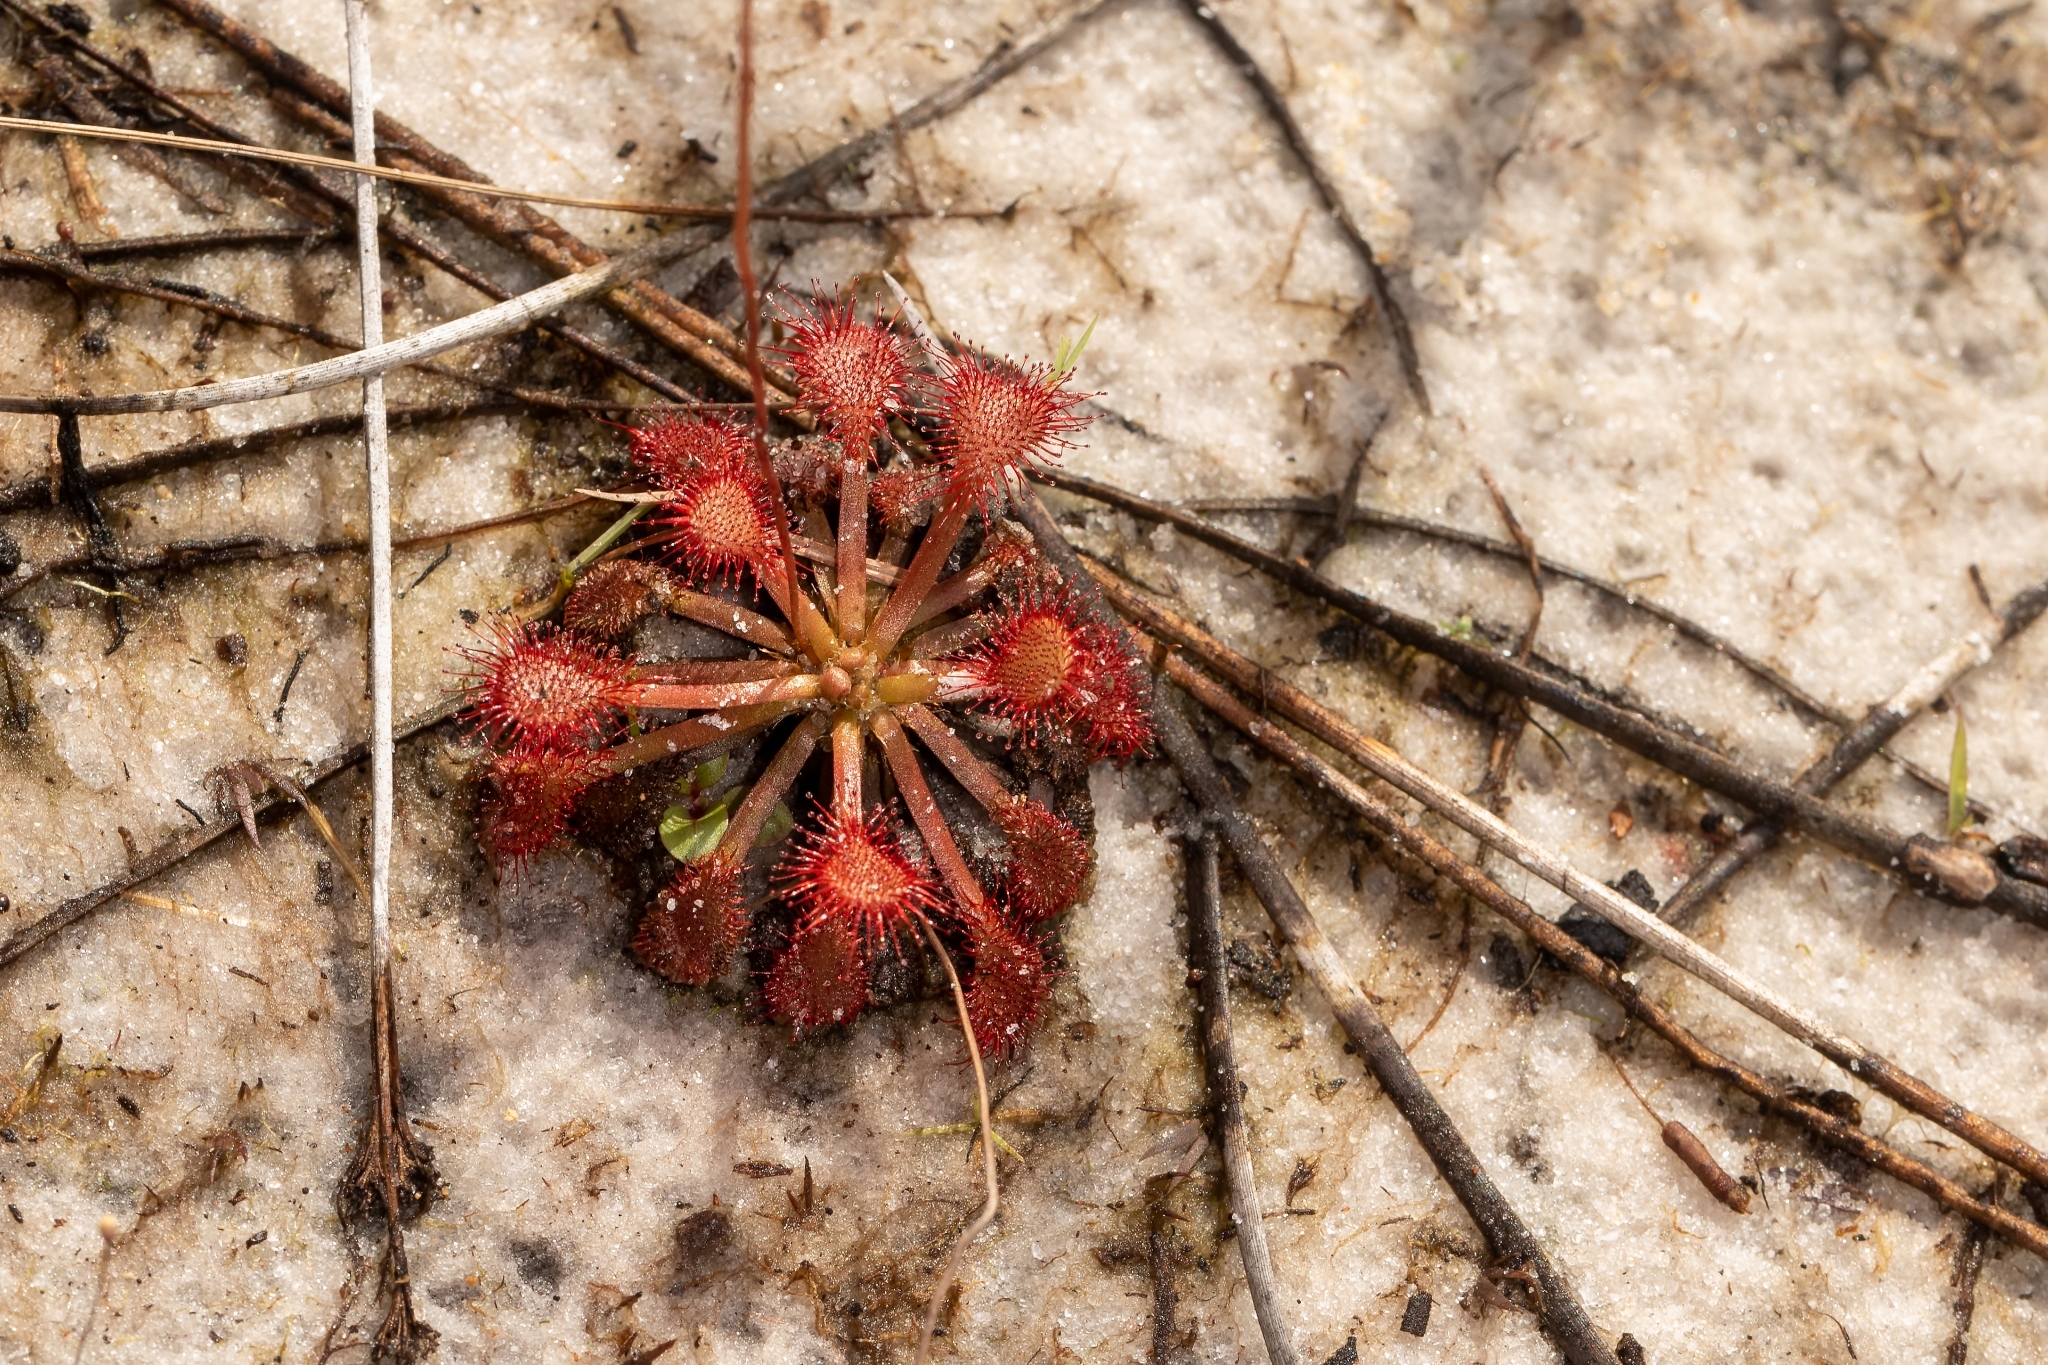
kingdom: Plantae
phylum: Tracheophyta
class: Magnoliopsida
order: Caryophyllales
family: Droseraceae
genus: Drosera
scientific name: Drosera capillaris
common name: Pink sundew
